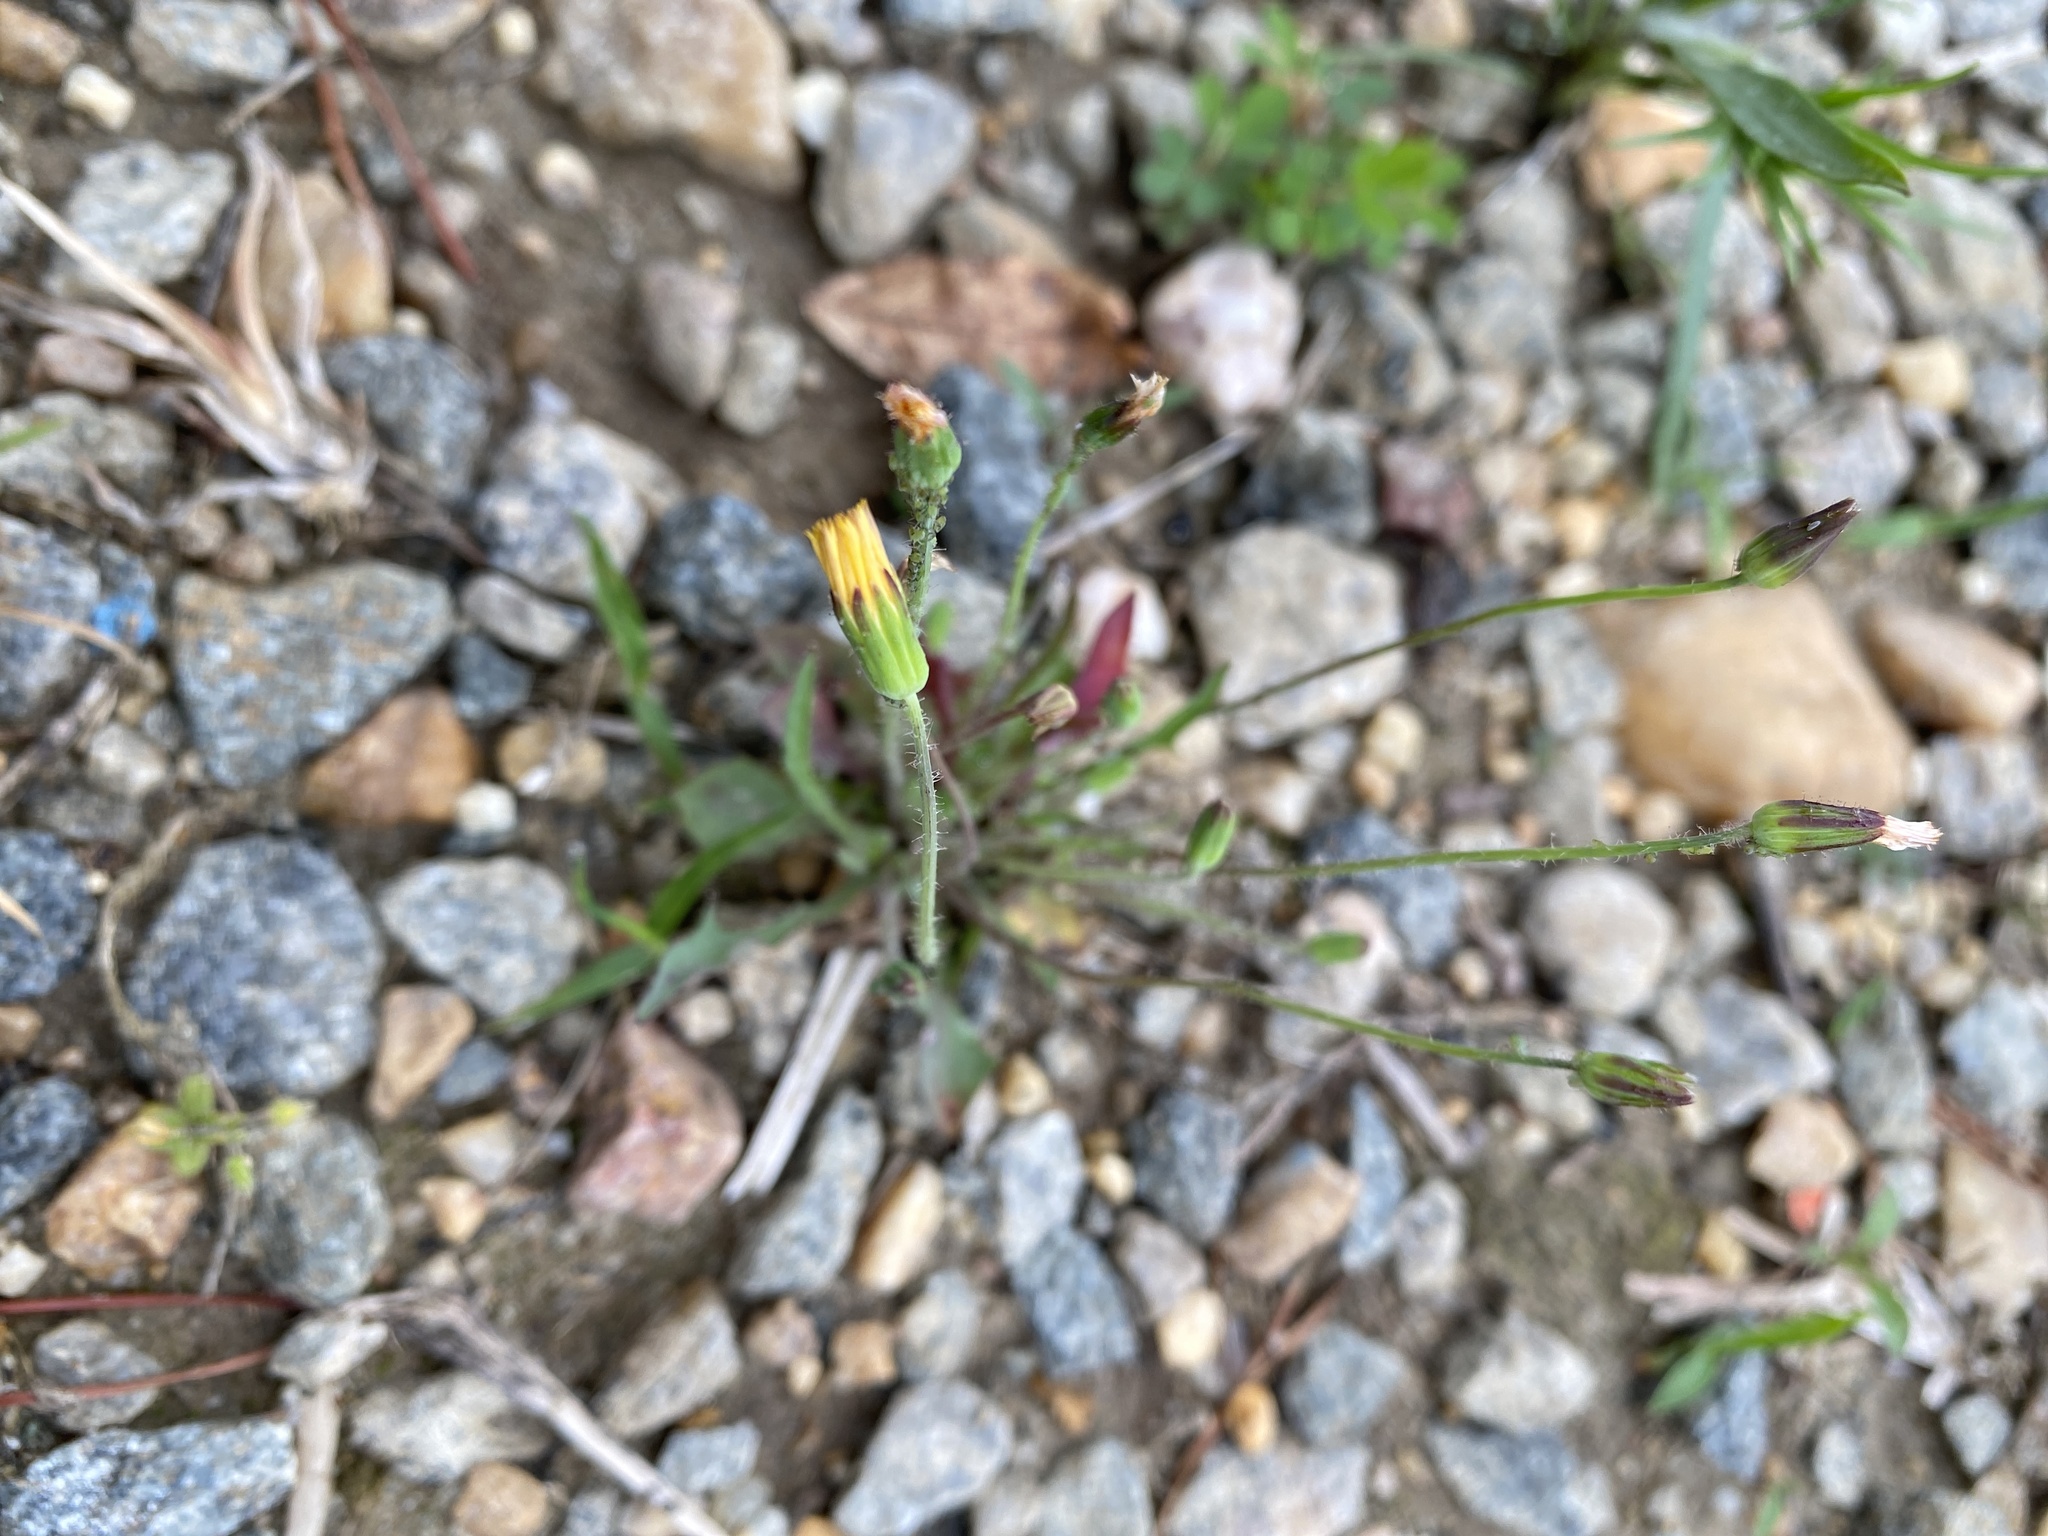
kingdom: Plantae
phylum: Tracheophyta
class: Magnoliopsida
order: Asterales
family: Asteraceae
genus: Krigia
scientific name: Krigia virginica
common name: Virginia dwarf-dandelion
